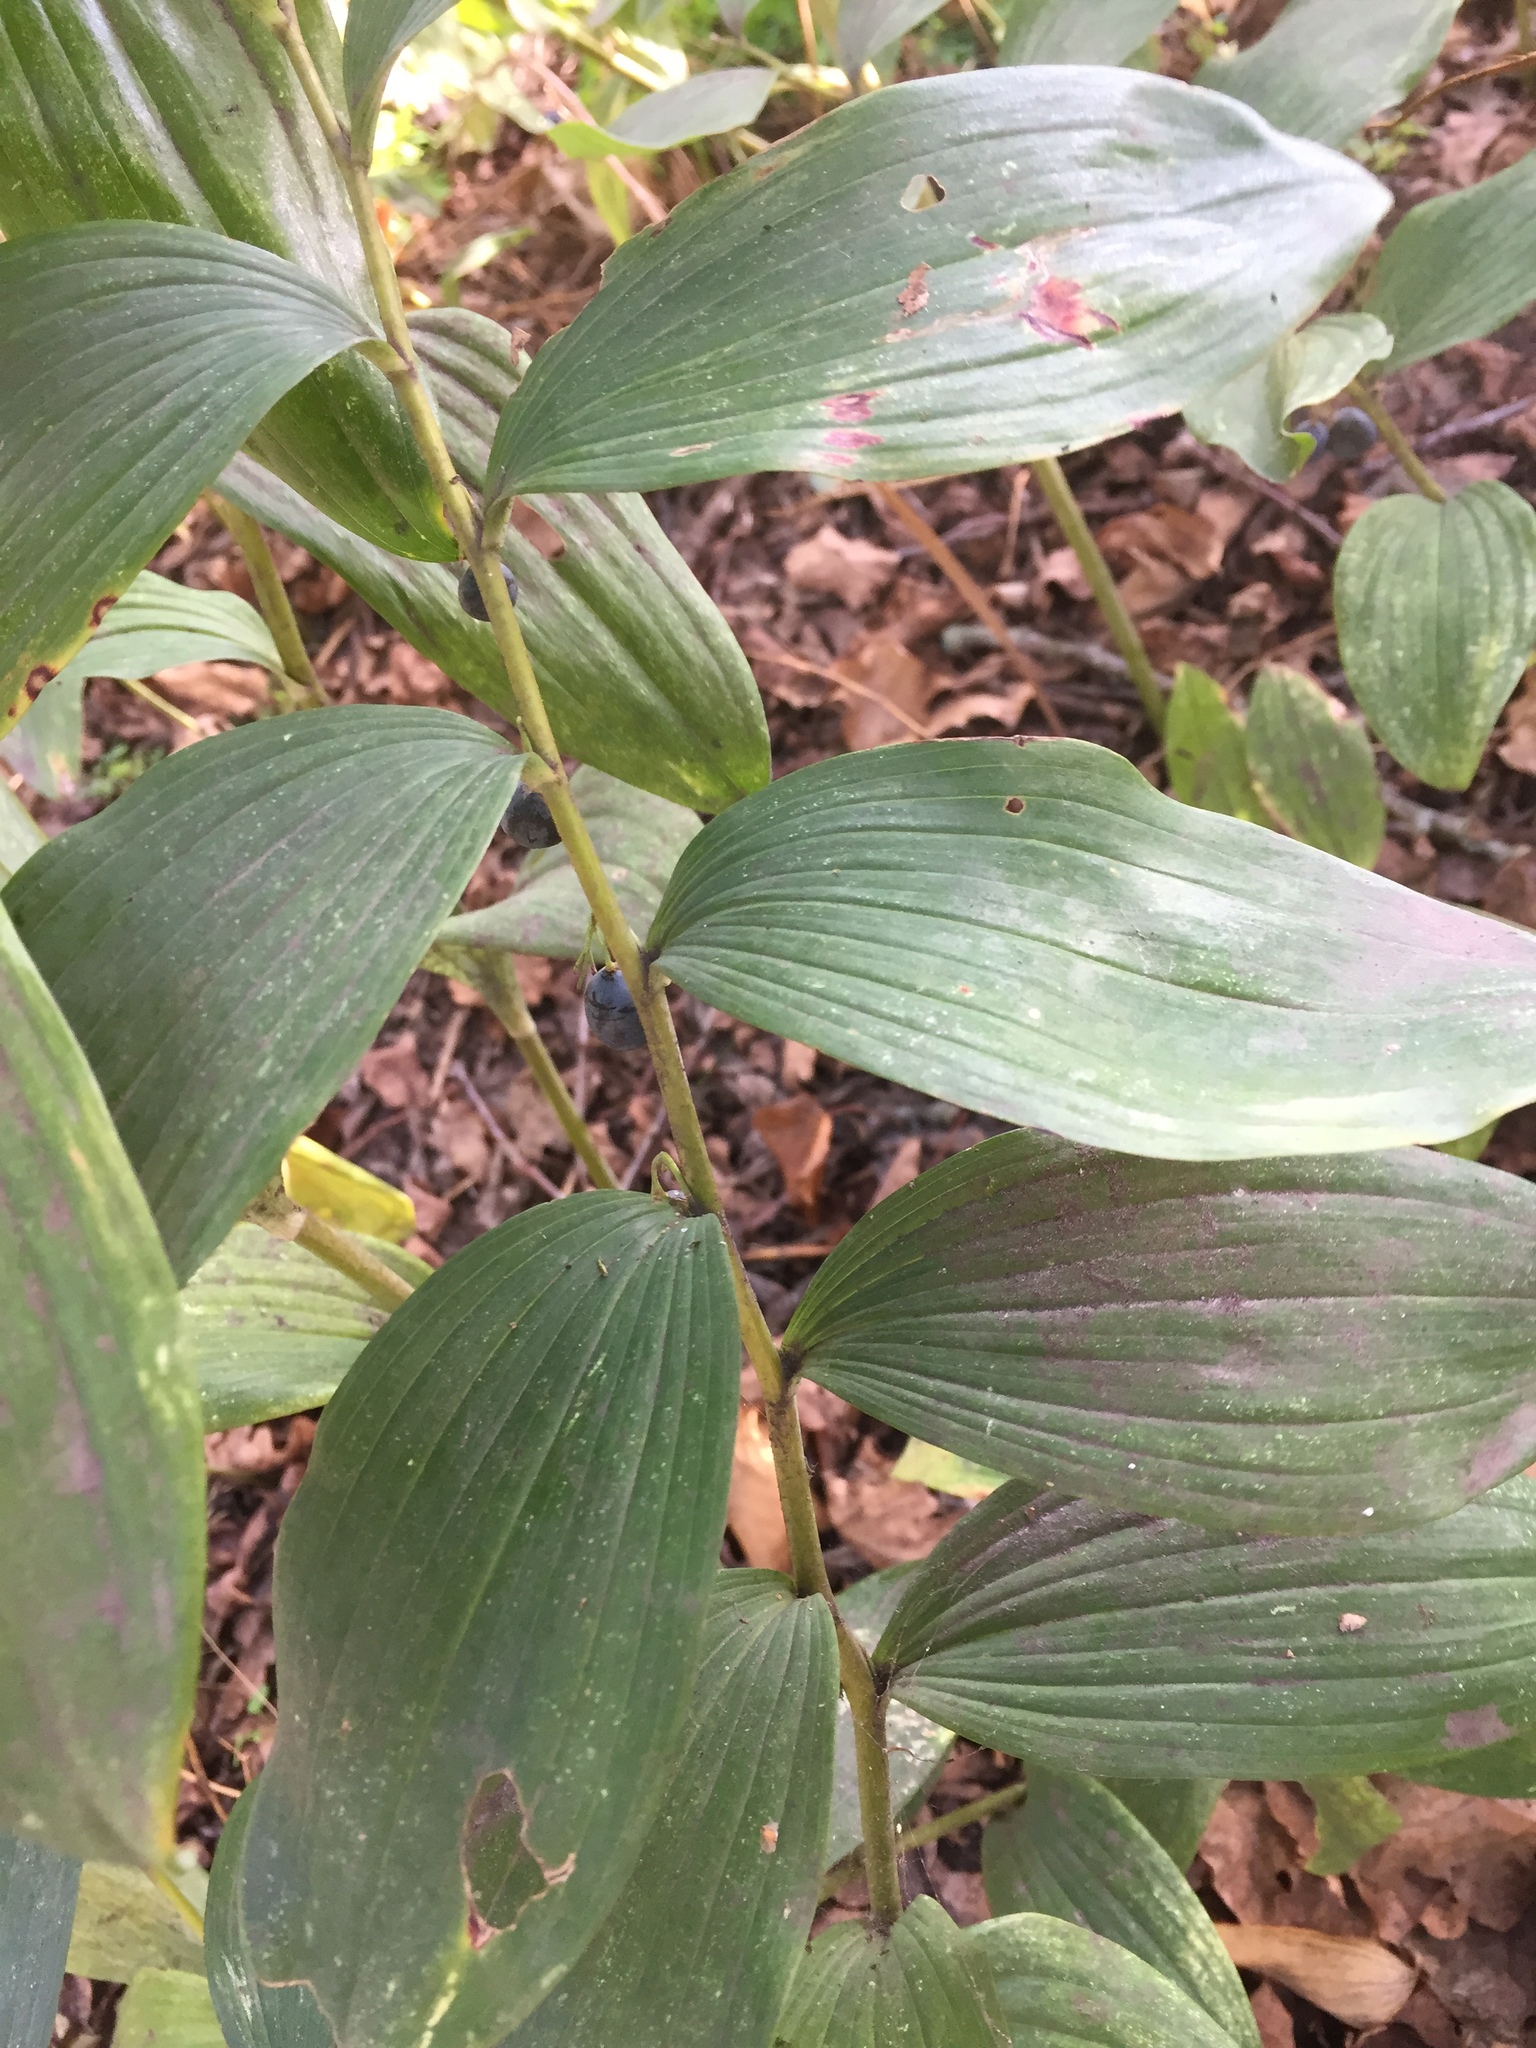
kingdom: Plantae
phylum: Tracheophyta
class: Liliopsida
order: Asparagales
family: Asparagaceae
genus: Polygonatum
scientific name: Polygonatum multiflorum
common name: Solomon's-seal
